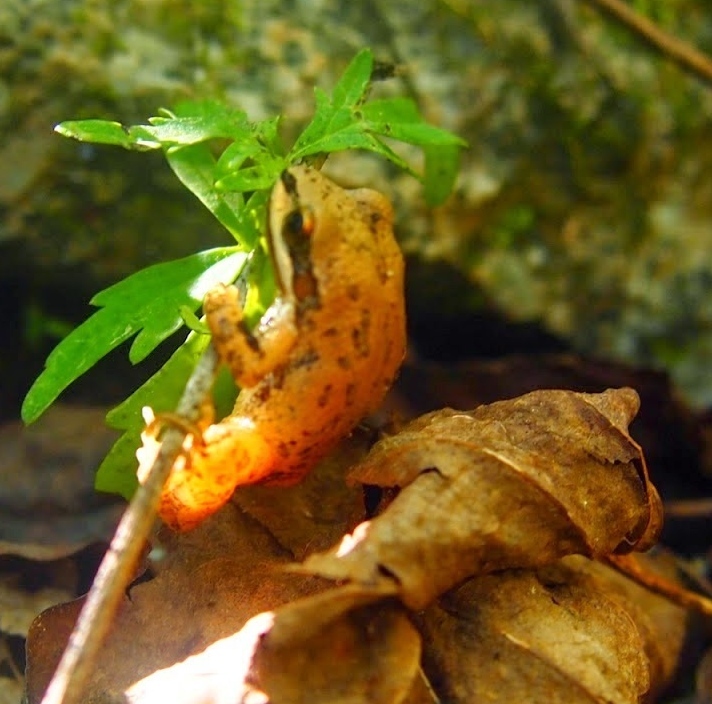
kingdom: Animalia
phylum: Chordata
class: Amphibia
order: Anura
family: Hylidae
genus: Pseudacris
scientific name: Pseudacris feriarum
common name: Upland chorus frog
